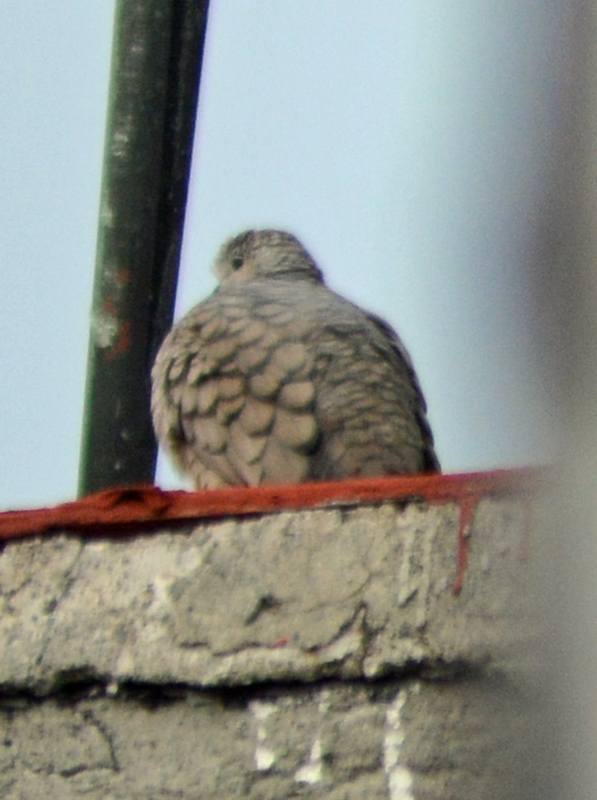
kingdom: Animalia
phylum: Chordata
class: Aves
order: Columbiformes
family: Columbidae
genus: Columbina
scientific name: Columbina inca
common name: Inca dove
